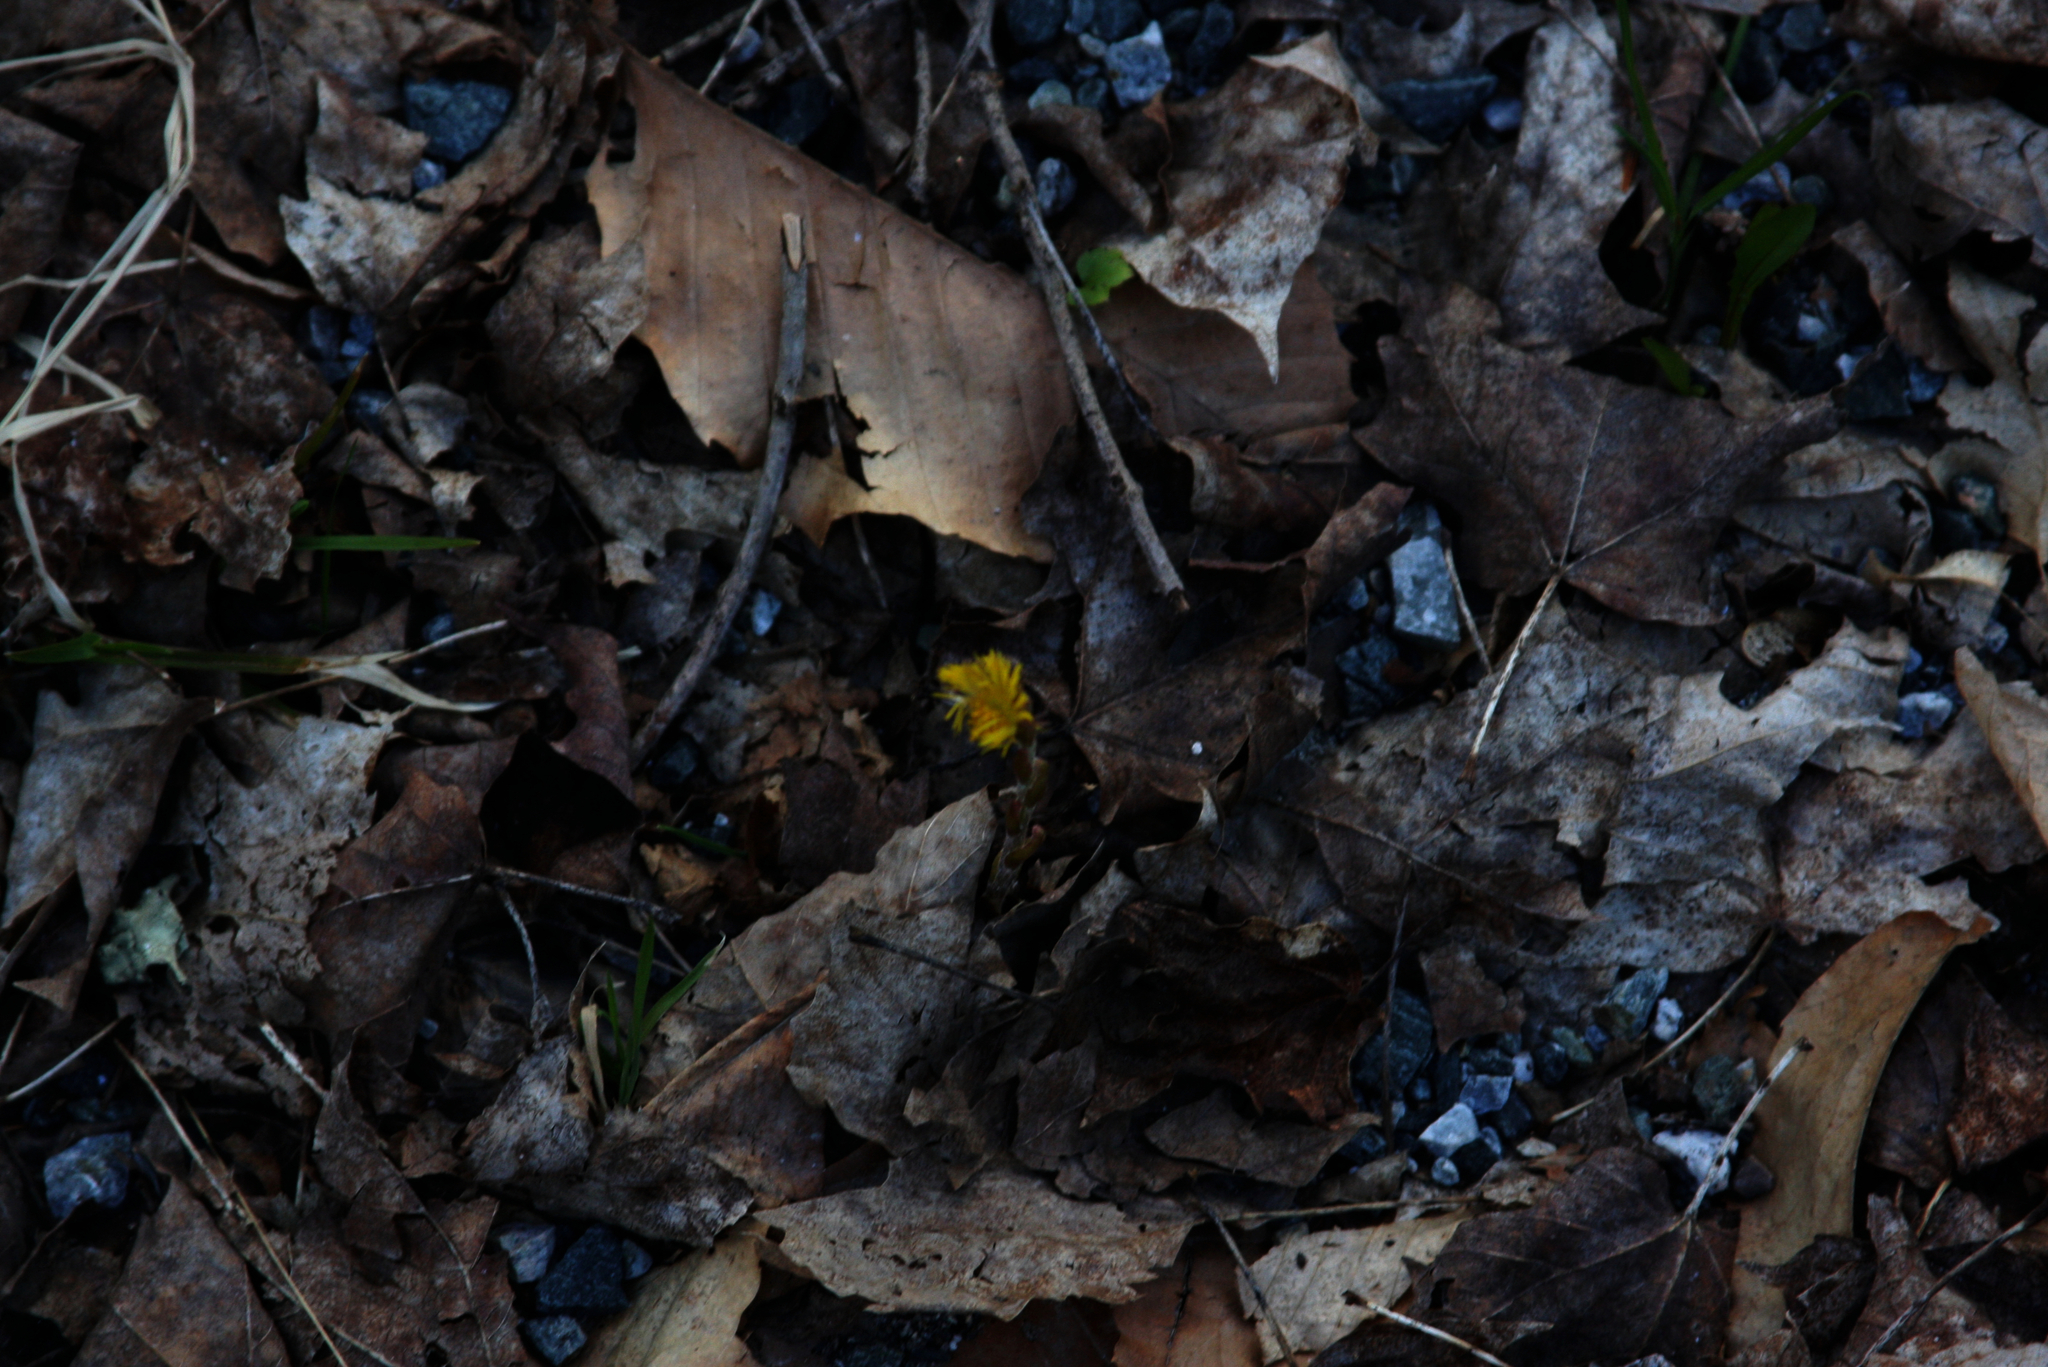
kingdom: Plantae
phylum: Tracheophyta
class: Magnoliopsida
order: Asterales
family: Asteraceae
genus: Tussilago
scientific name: Tussilago farfara
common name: Coltsfoot
